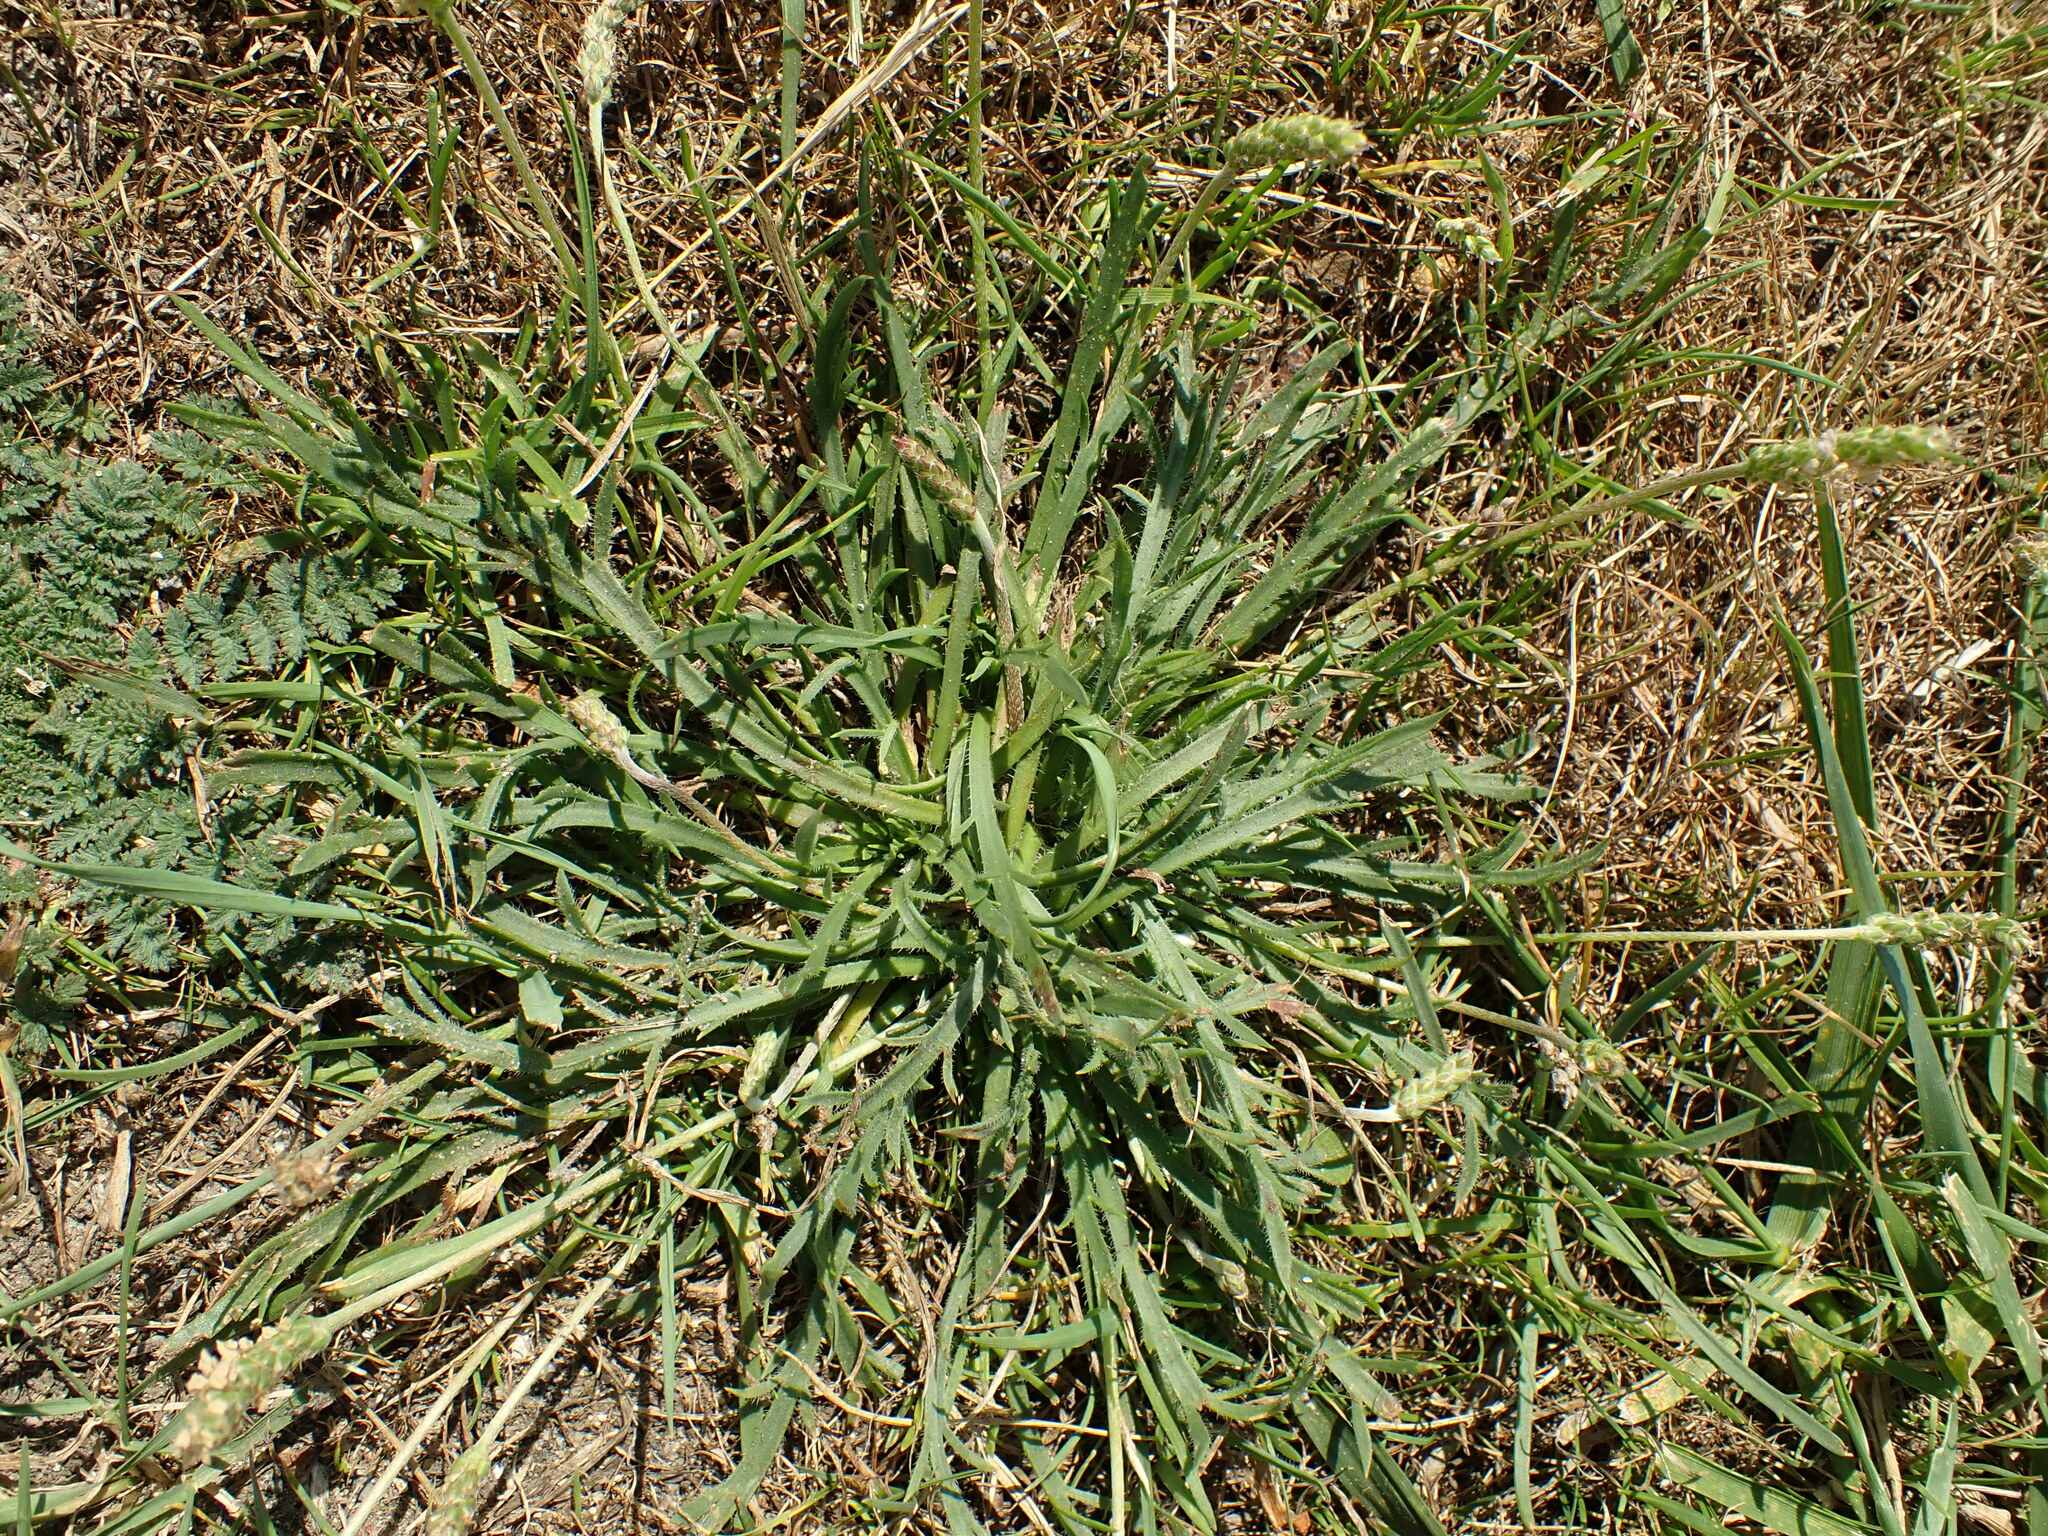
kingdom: Plantae
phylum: Tracheophyta
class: Magnoliopsida
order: Lamiales
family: Plantaginaceae
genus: Plantago
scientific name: Plantago coronopus
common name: Buck's-horn plantain
